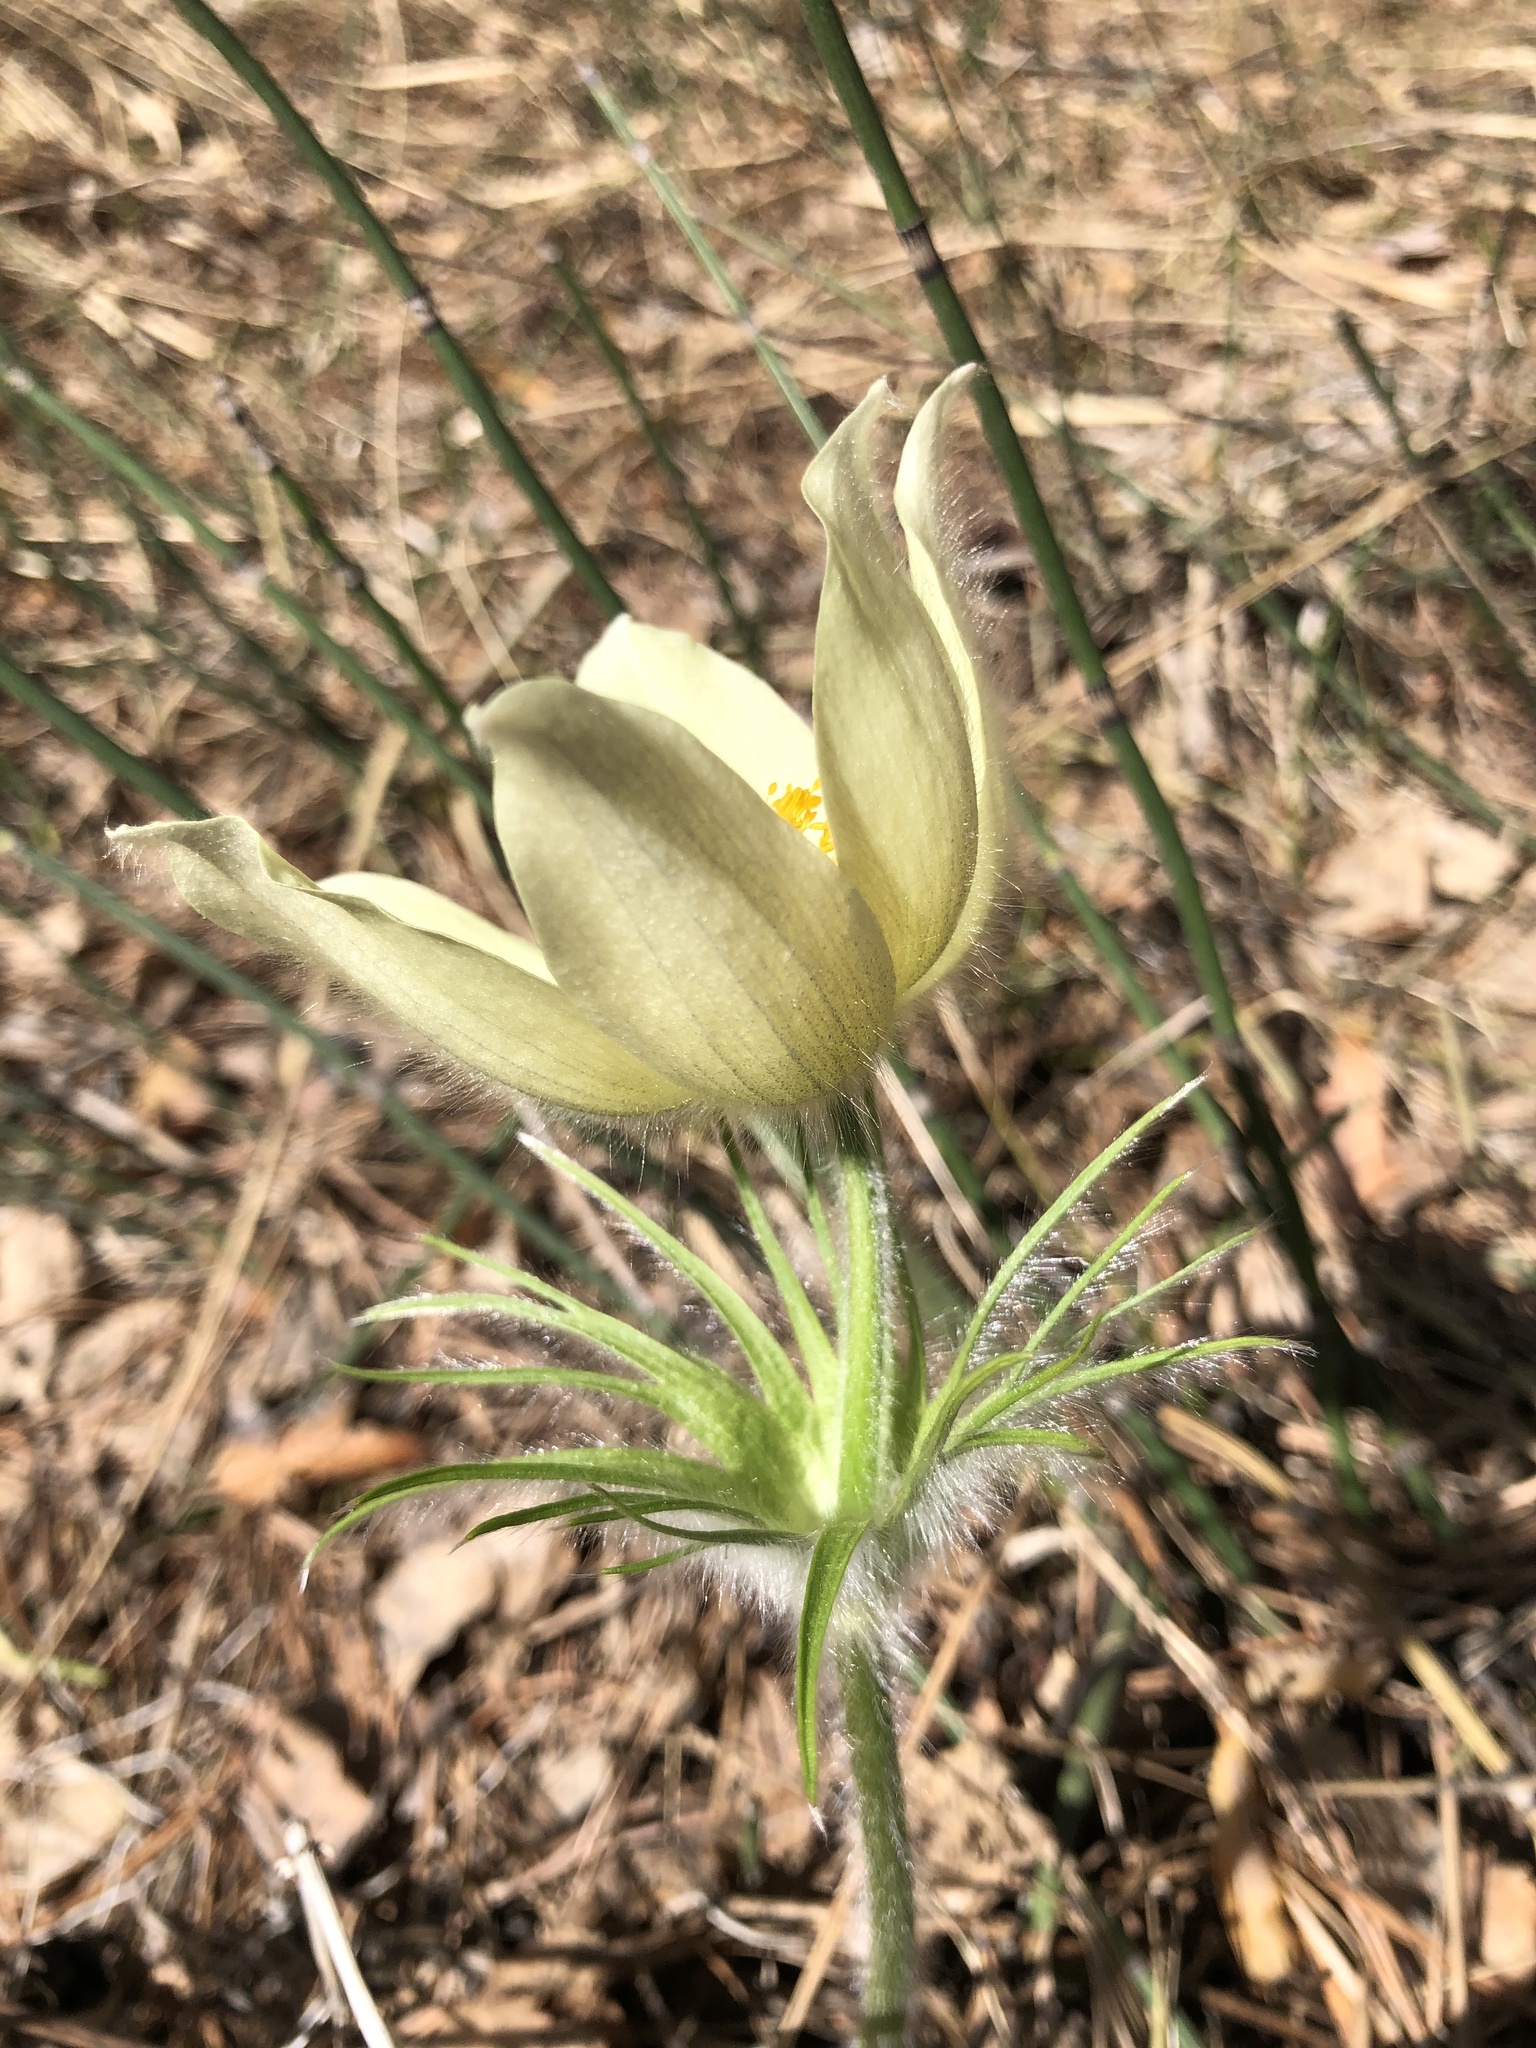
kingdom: Plantae
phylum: Tracheophyta
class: Magnoliopsida
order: Ranunculales
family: Ranunculaceae
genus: Pulsatilla
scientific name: Pulsatilla patens
